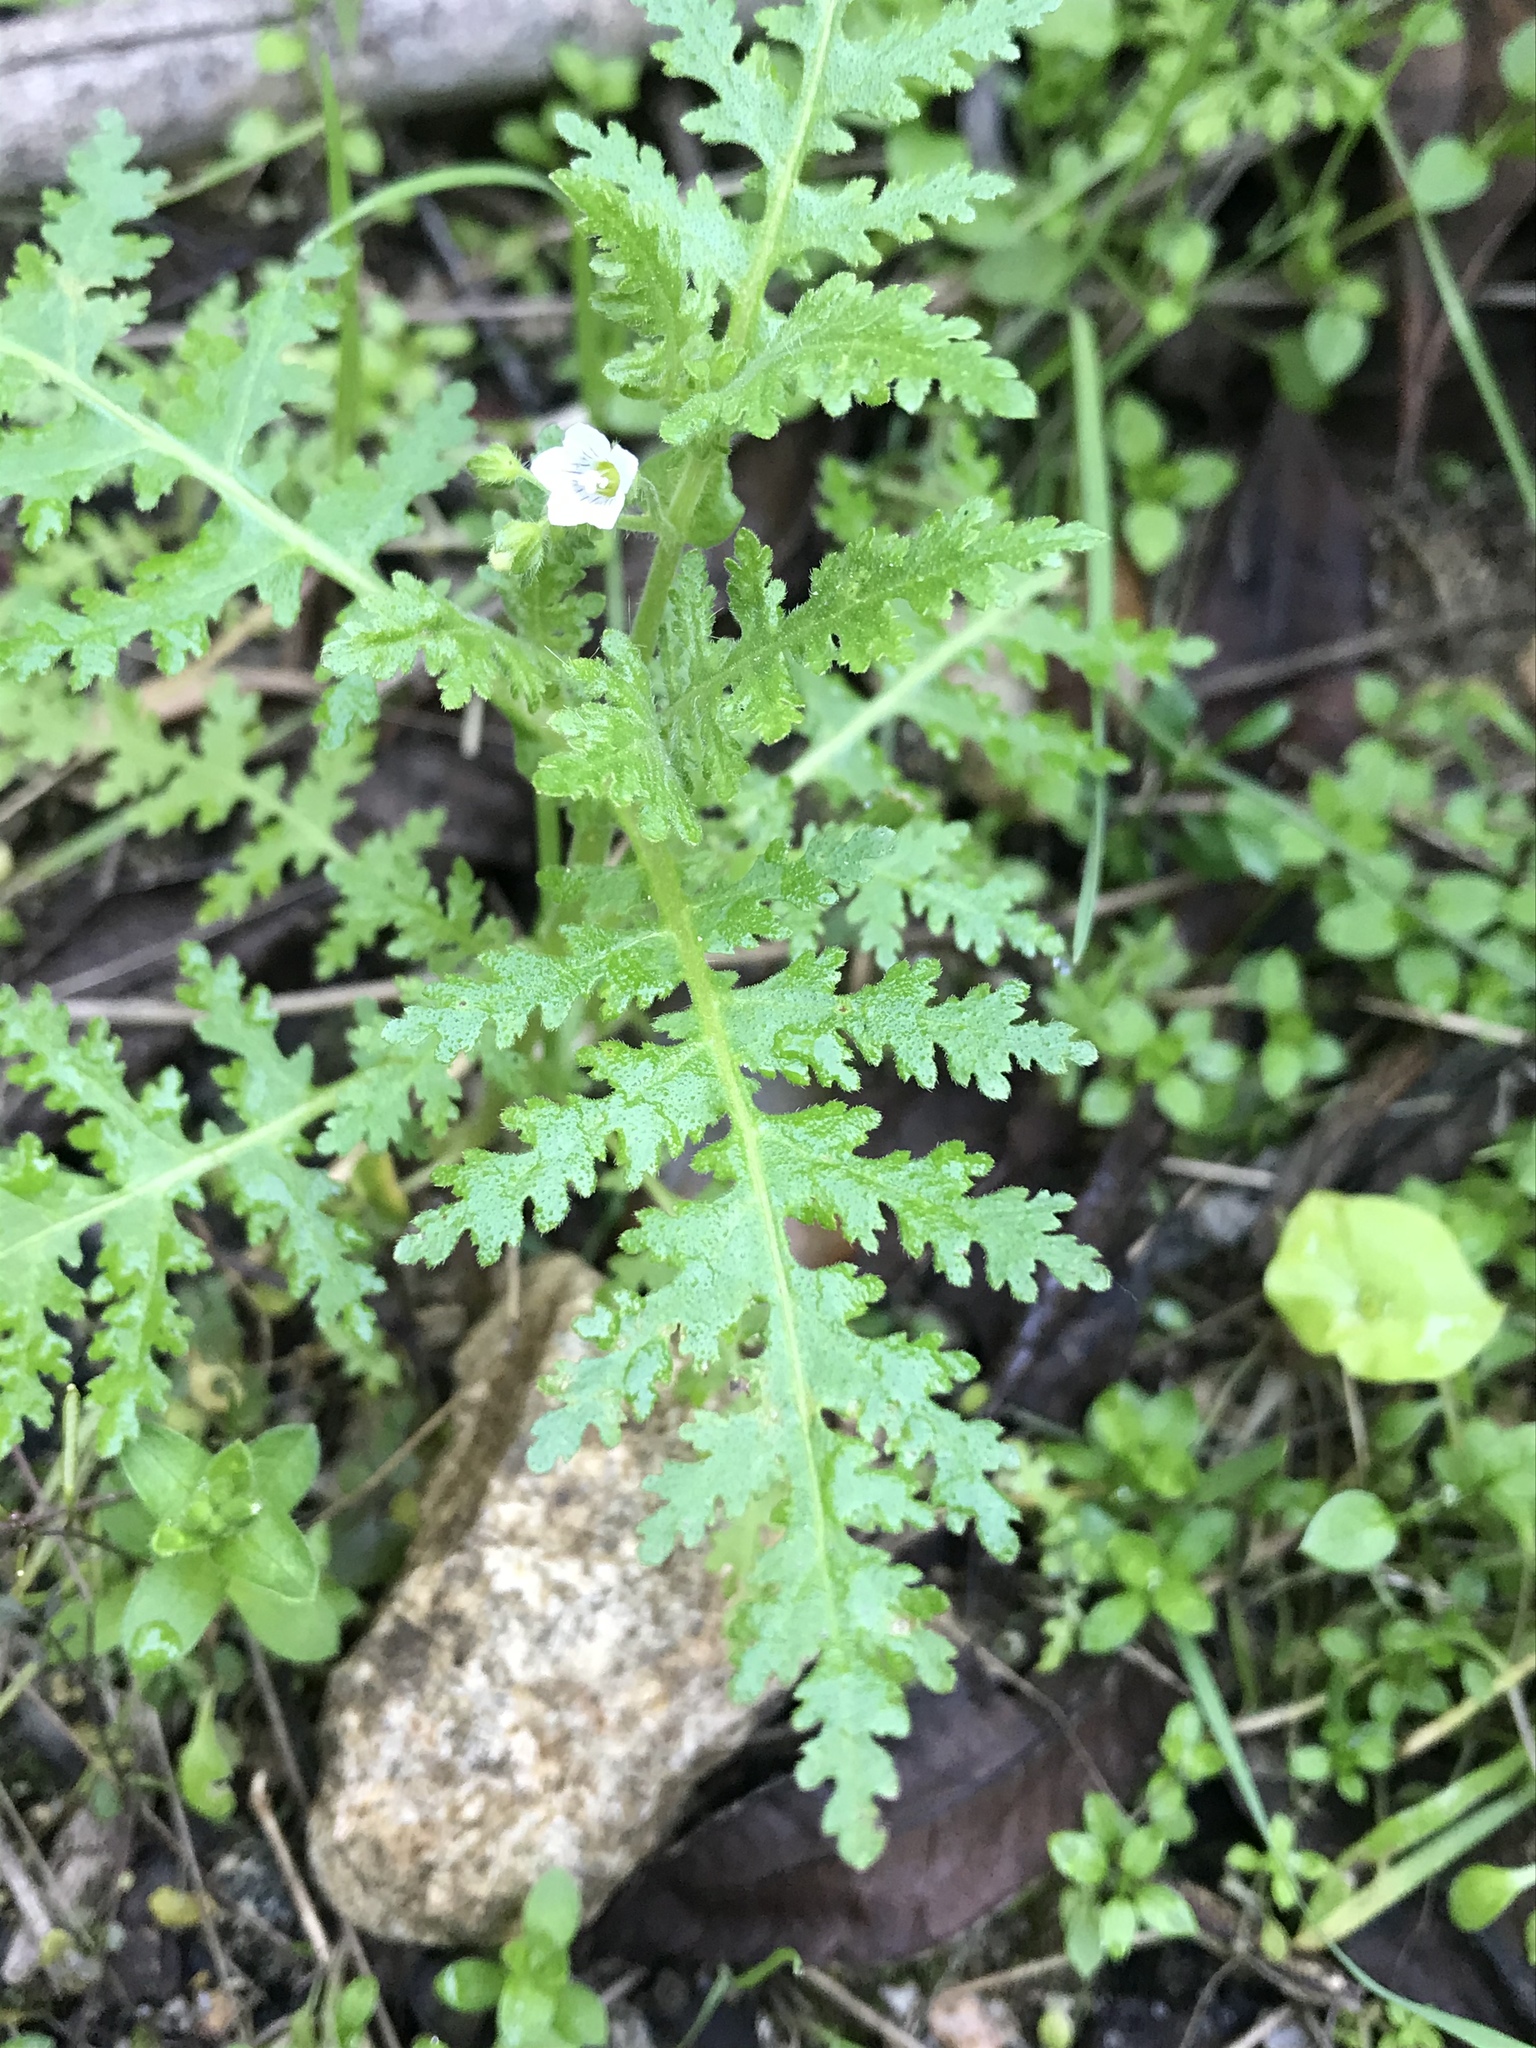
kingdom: Plantae
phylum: Tracheophyta
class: Magnoliopsida
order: Boraginales
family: Hydrophyllaceae
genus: Eucrypta
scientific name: Eucrypta chrysanthemifolia
